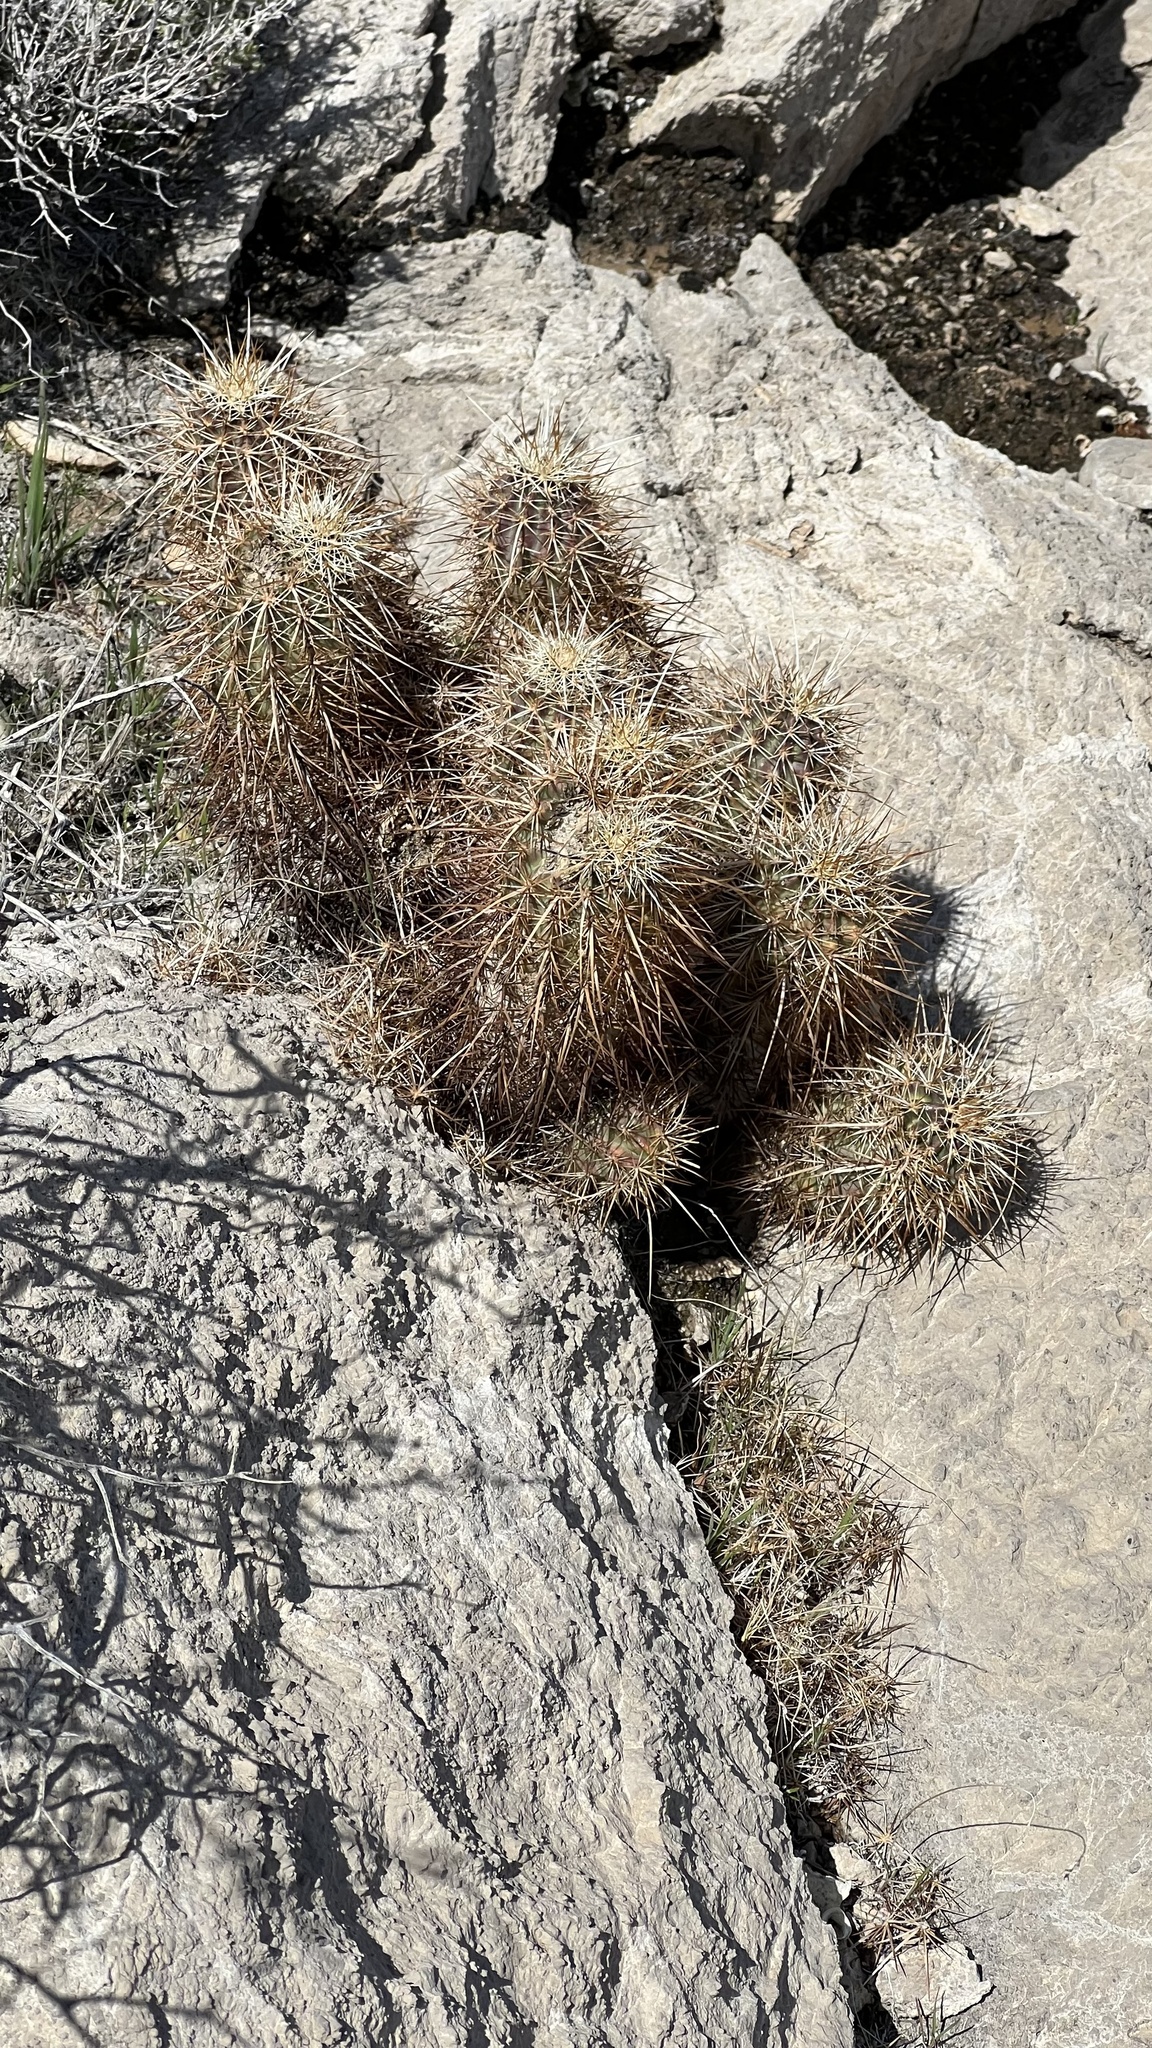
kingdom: Plantae
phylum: Tracheophyta
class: Magnoliopsida
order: Caryophyllales
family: Cactaceae
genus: Echinocereus
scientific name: Echinocereus engelmannii
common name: Engelmann's hedgehog cactus
